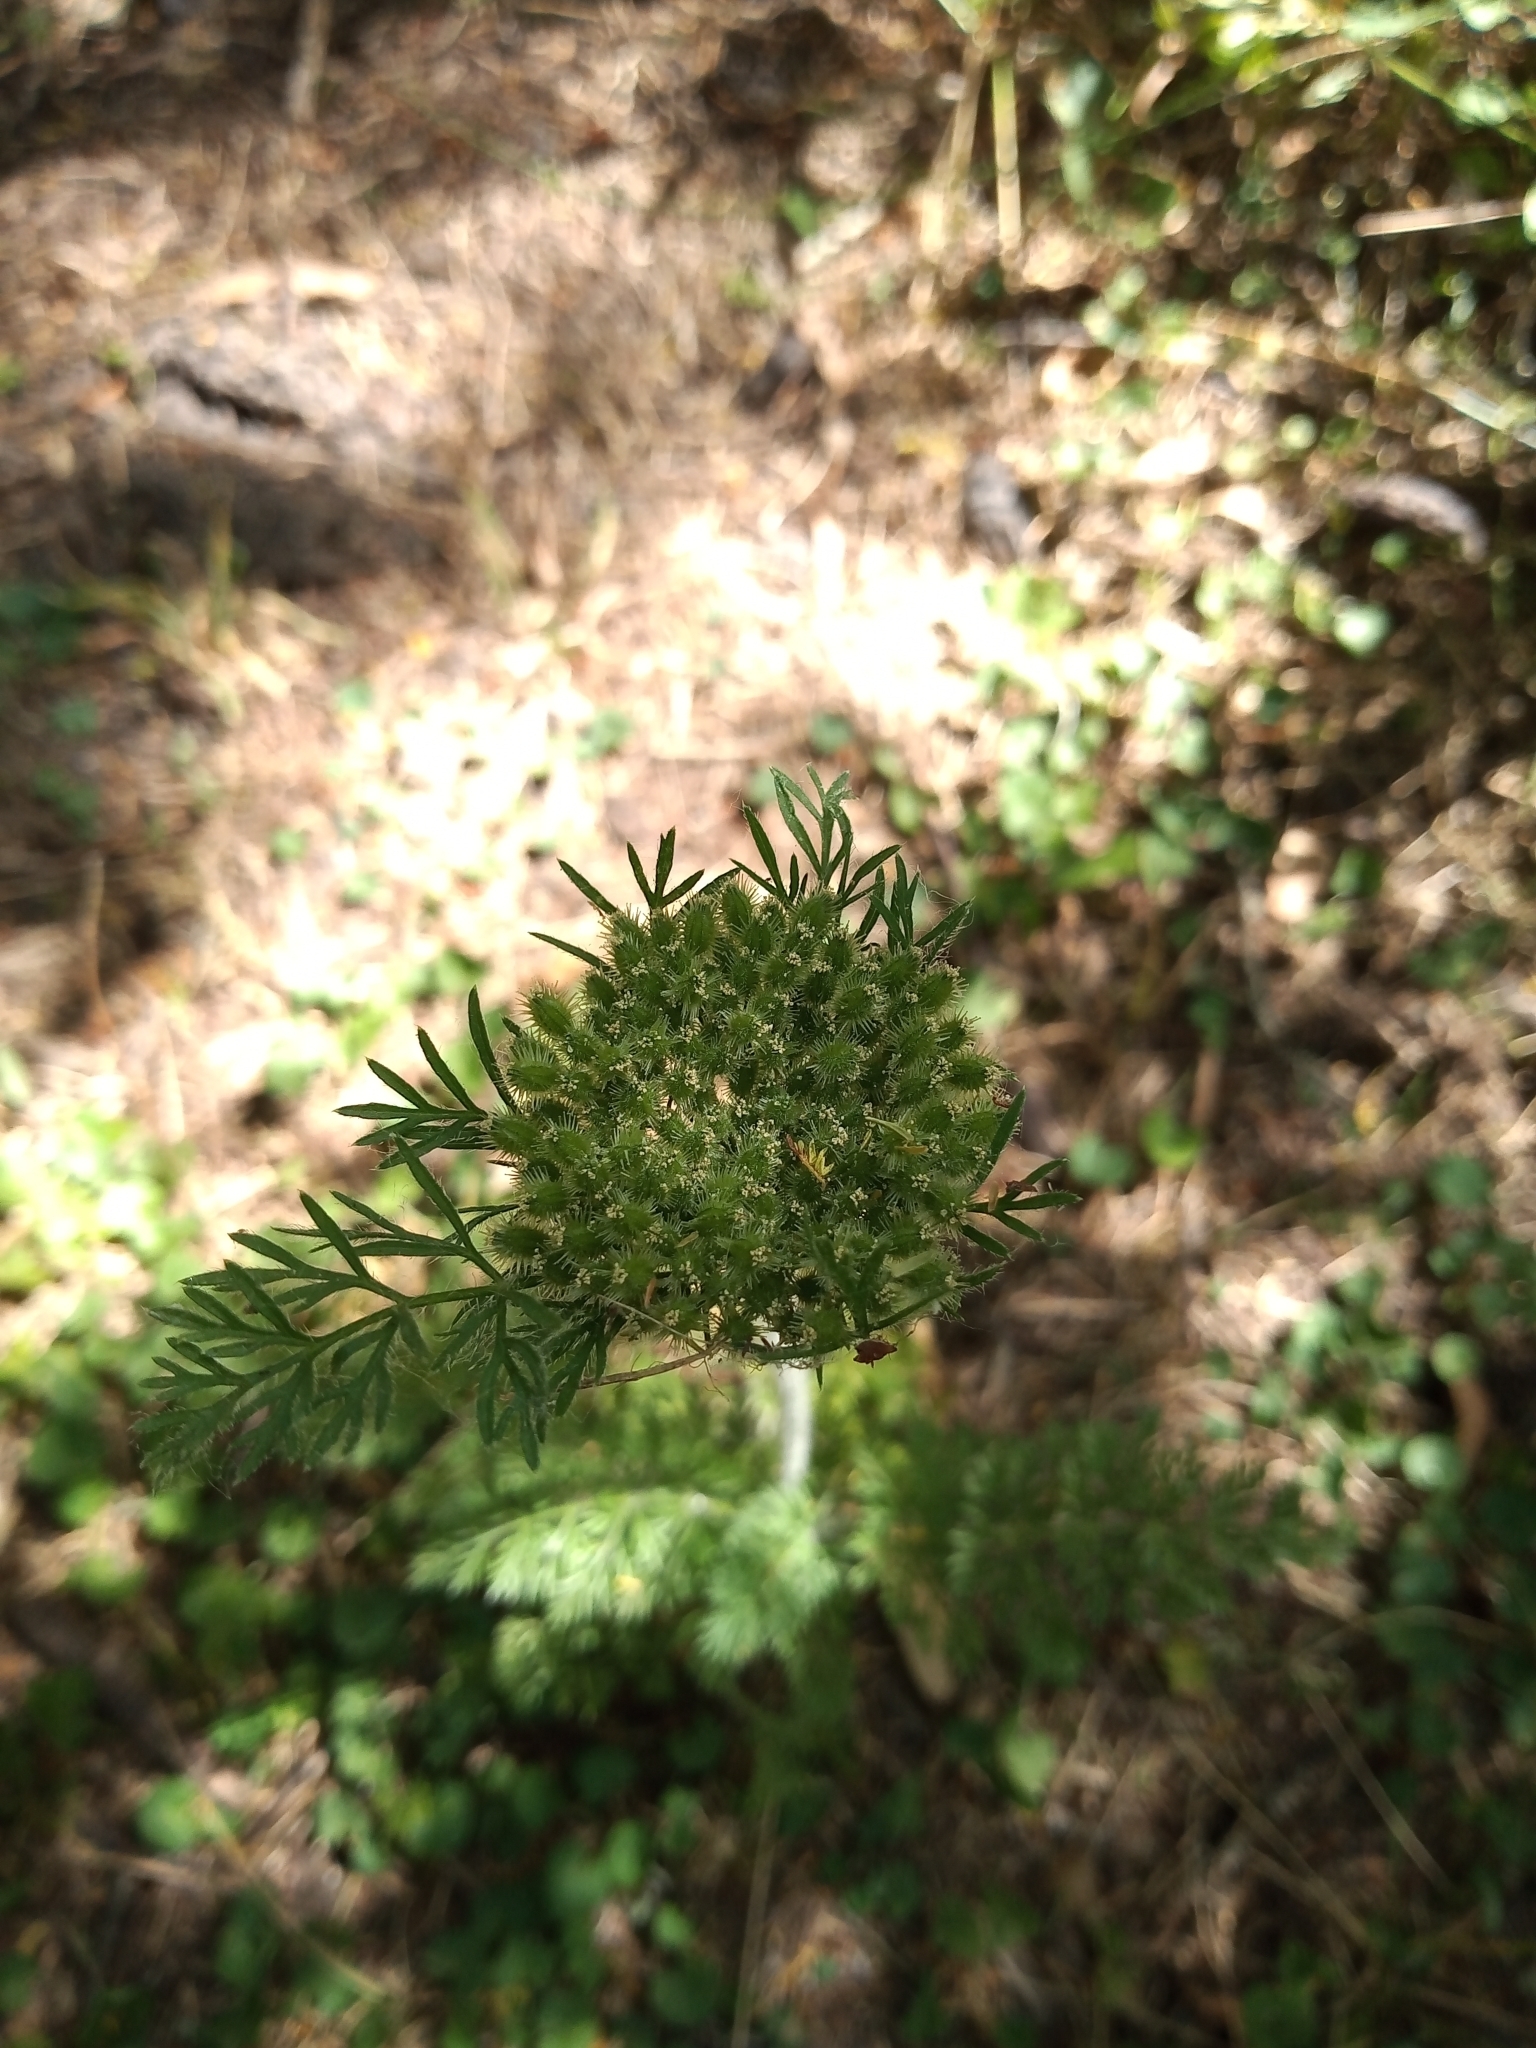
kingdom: Plantae
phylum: Tracheophyta
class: Magnoliopsida
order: Apiales
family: Apiaceae
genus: Daucus
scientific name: Daucus pusillus
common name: Southwest wild carrot
